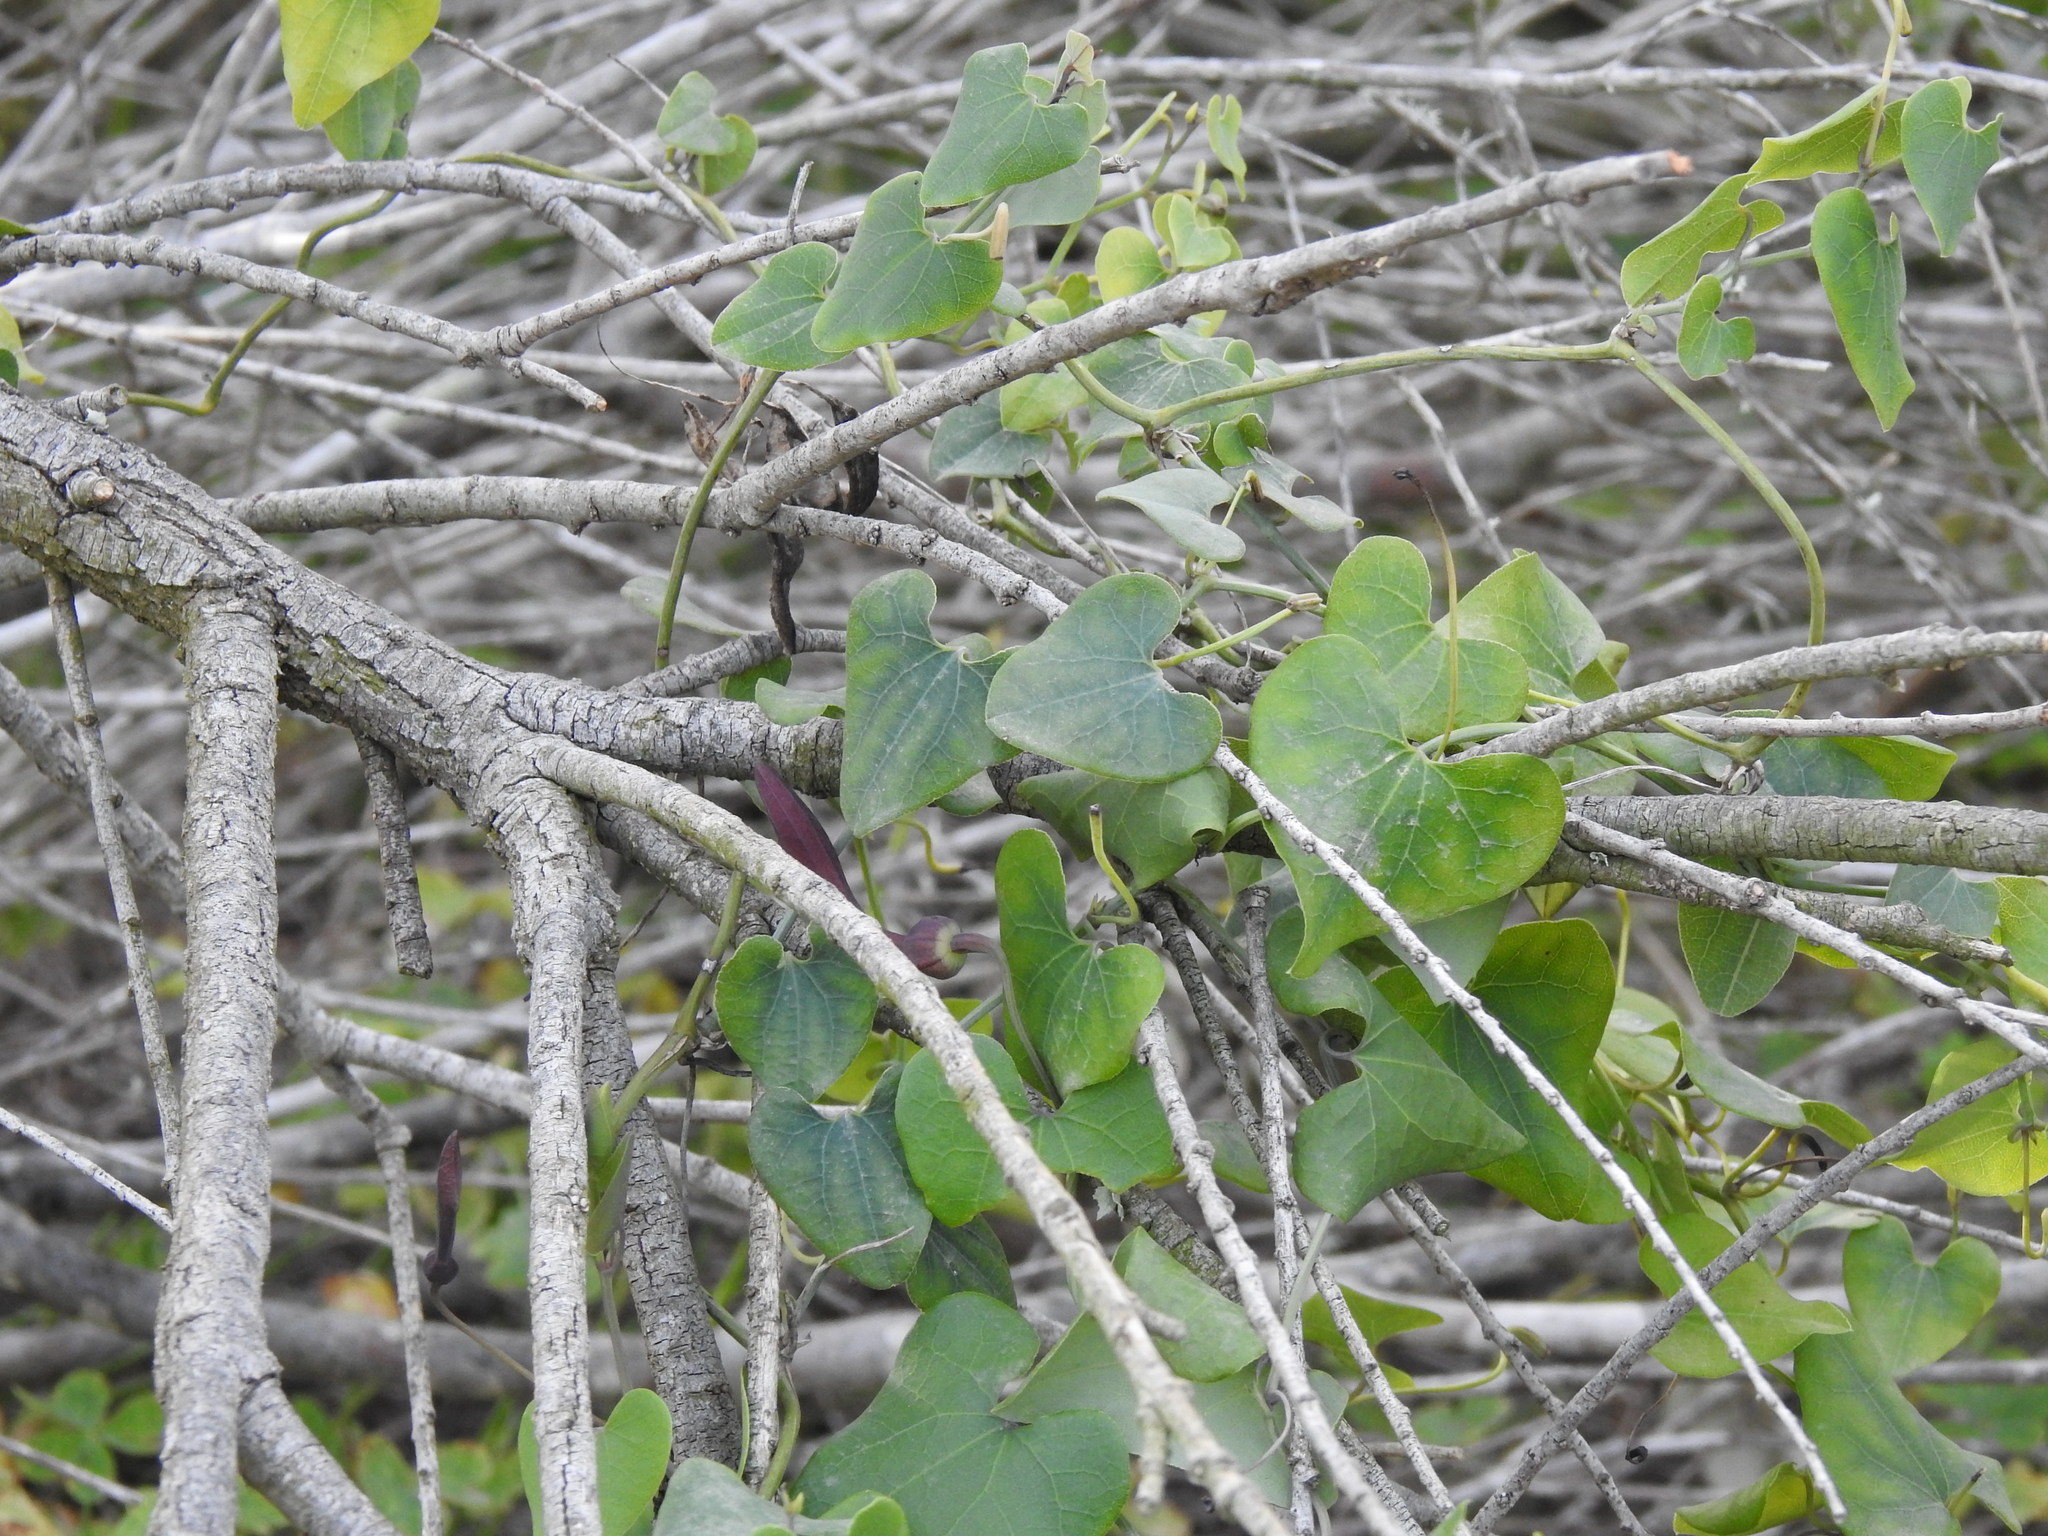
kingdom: Plantae
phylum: Tracheophyta
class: Magnoliopsida
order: Piperales
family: Aristolochiaceae
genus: Aristolochia
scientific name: Aristolochia baetica
